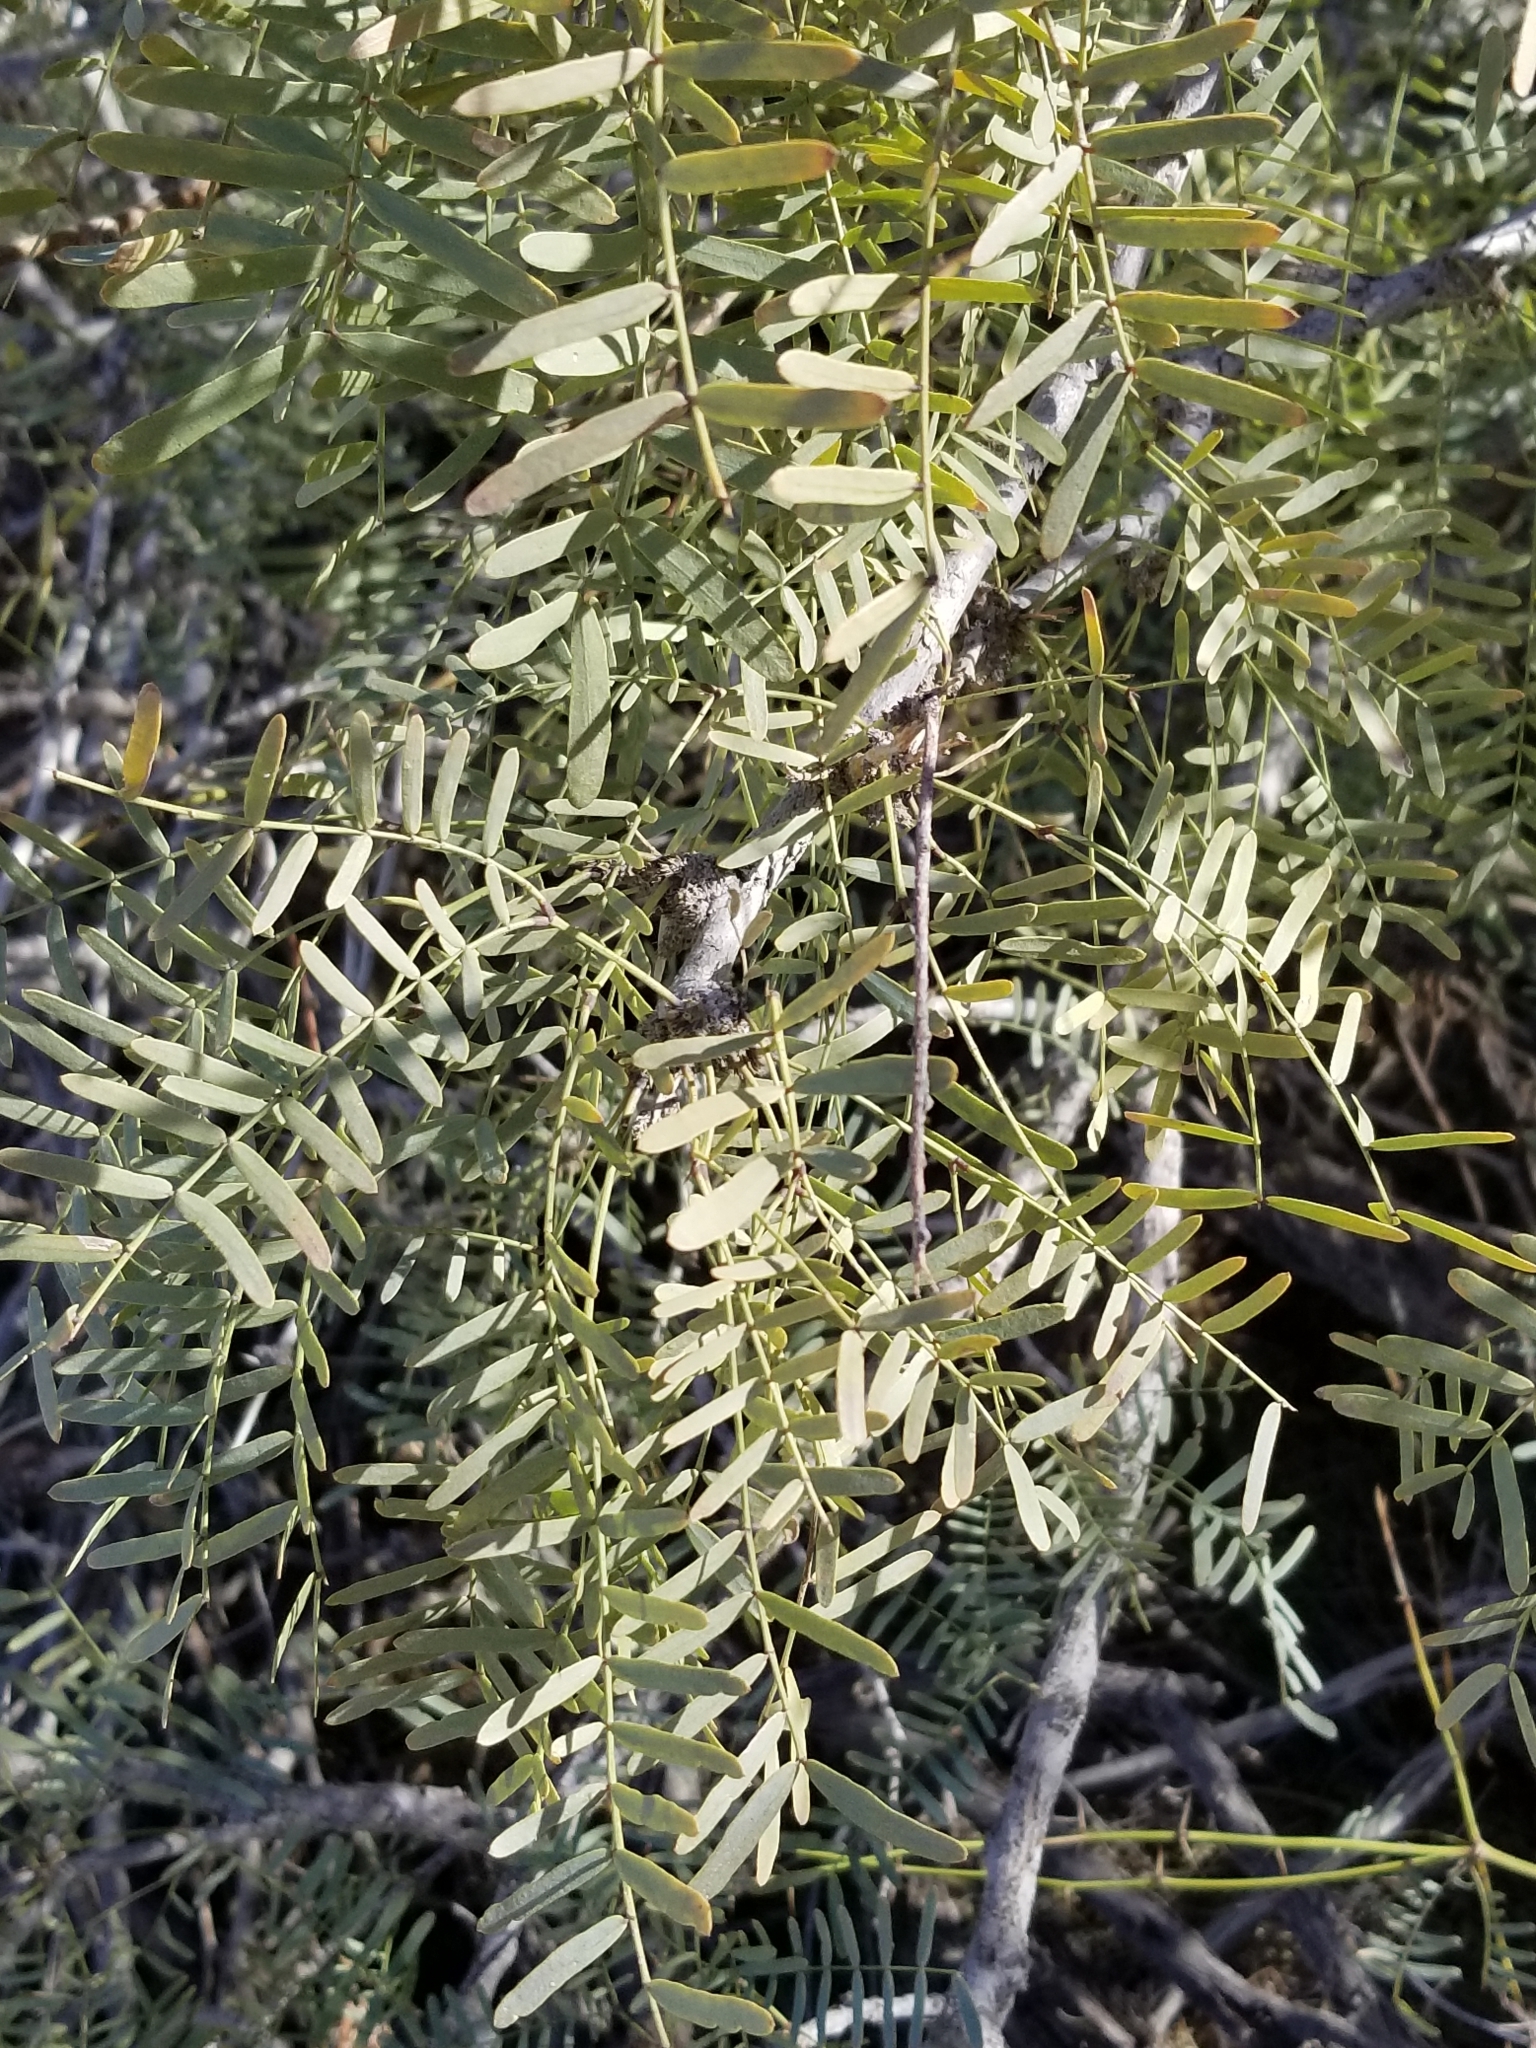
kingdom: Plantae
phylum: Tracheophyta
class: Magnoliopsida
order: Fabales
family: Fabaceae
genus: Prosopis
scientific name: Prosopis pubescens
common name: Screw-bean
